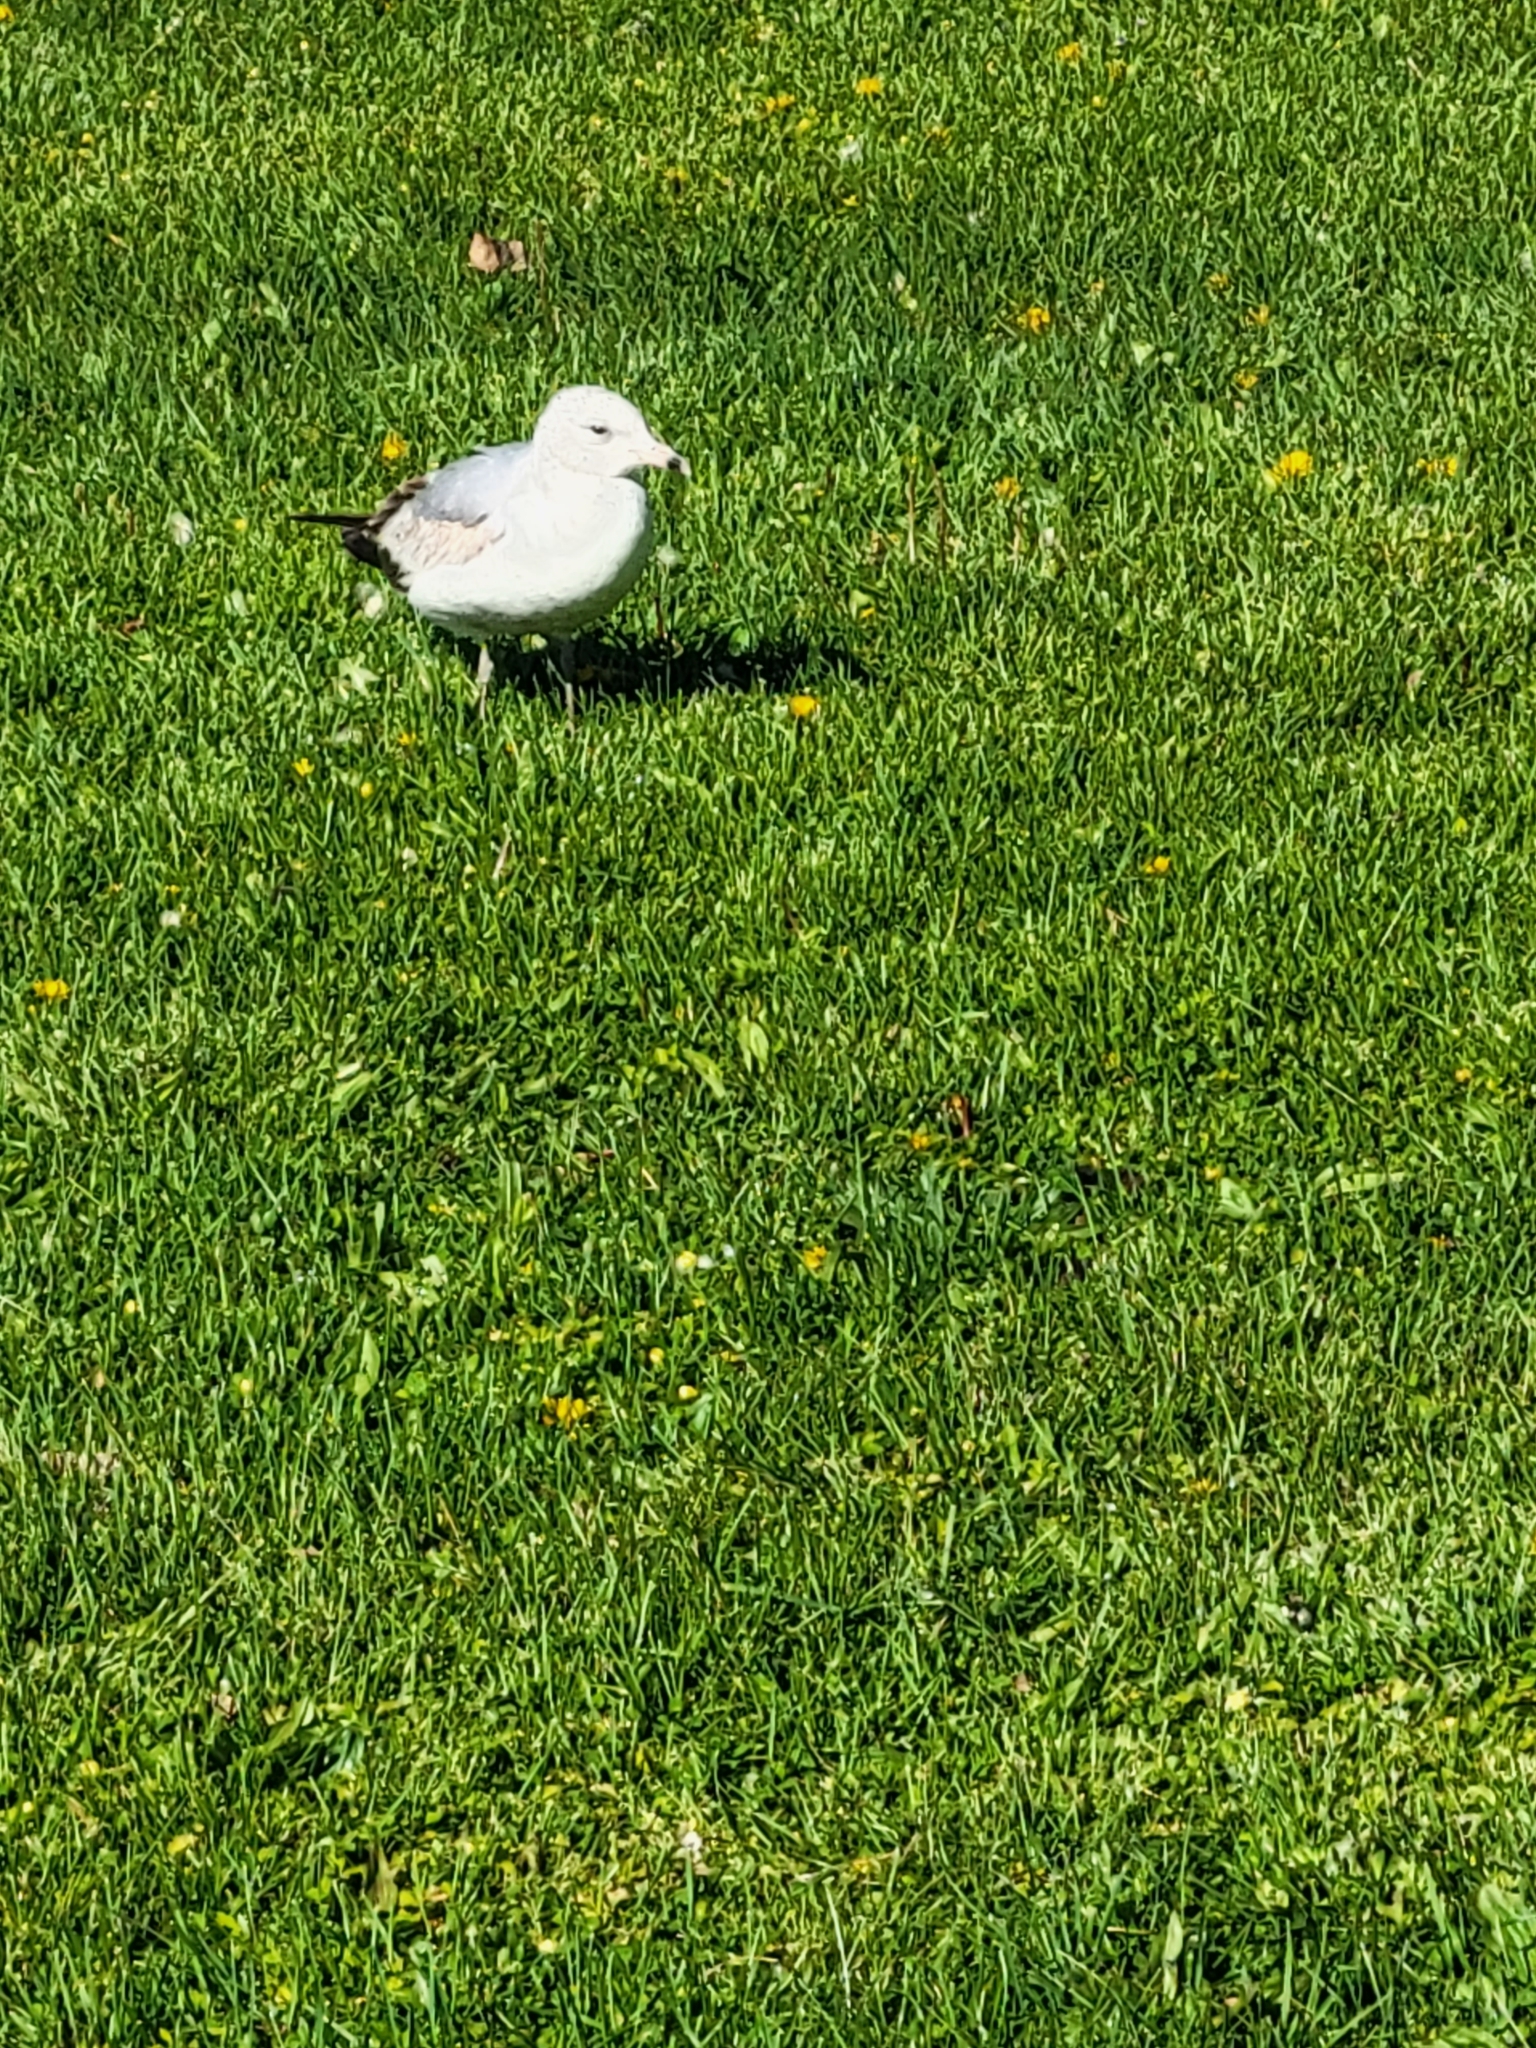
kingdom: Animalia
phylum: Chordata
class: Aves
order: Charadriiformes
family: Laridae
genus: Larus
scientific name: Larus delawarensis
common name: Ring-billed gull
